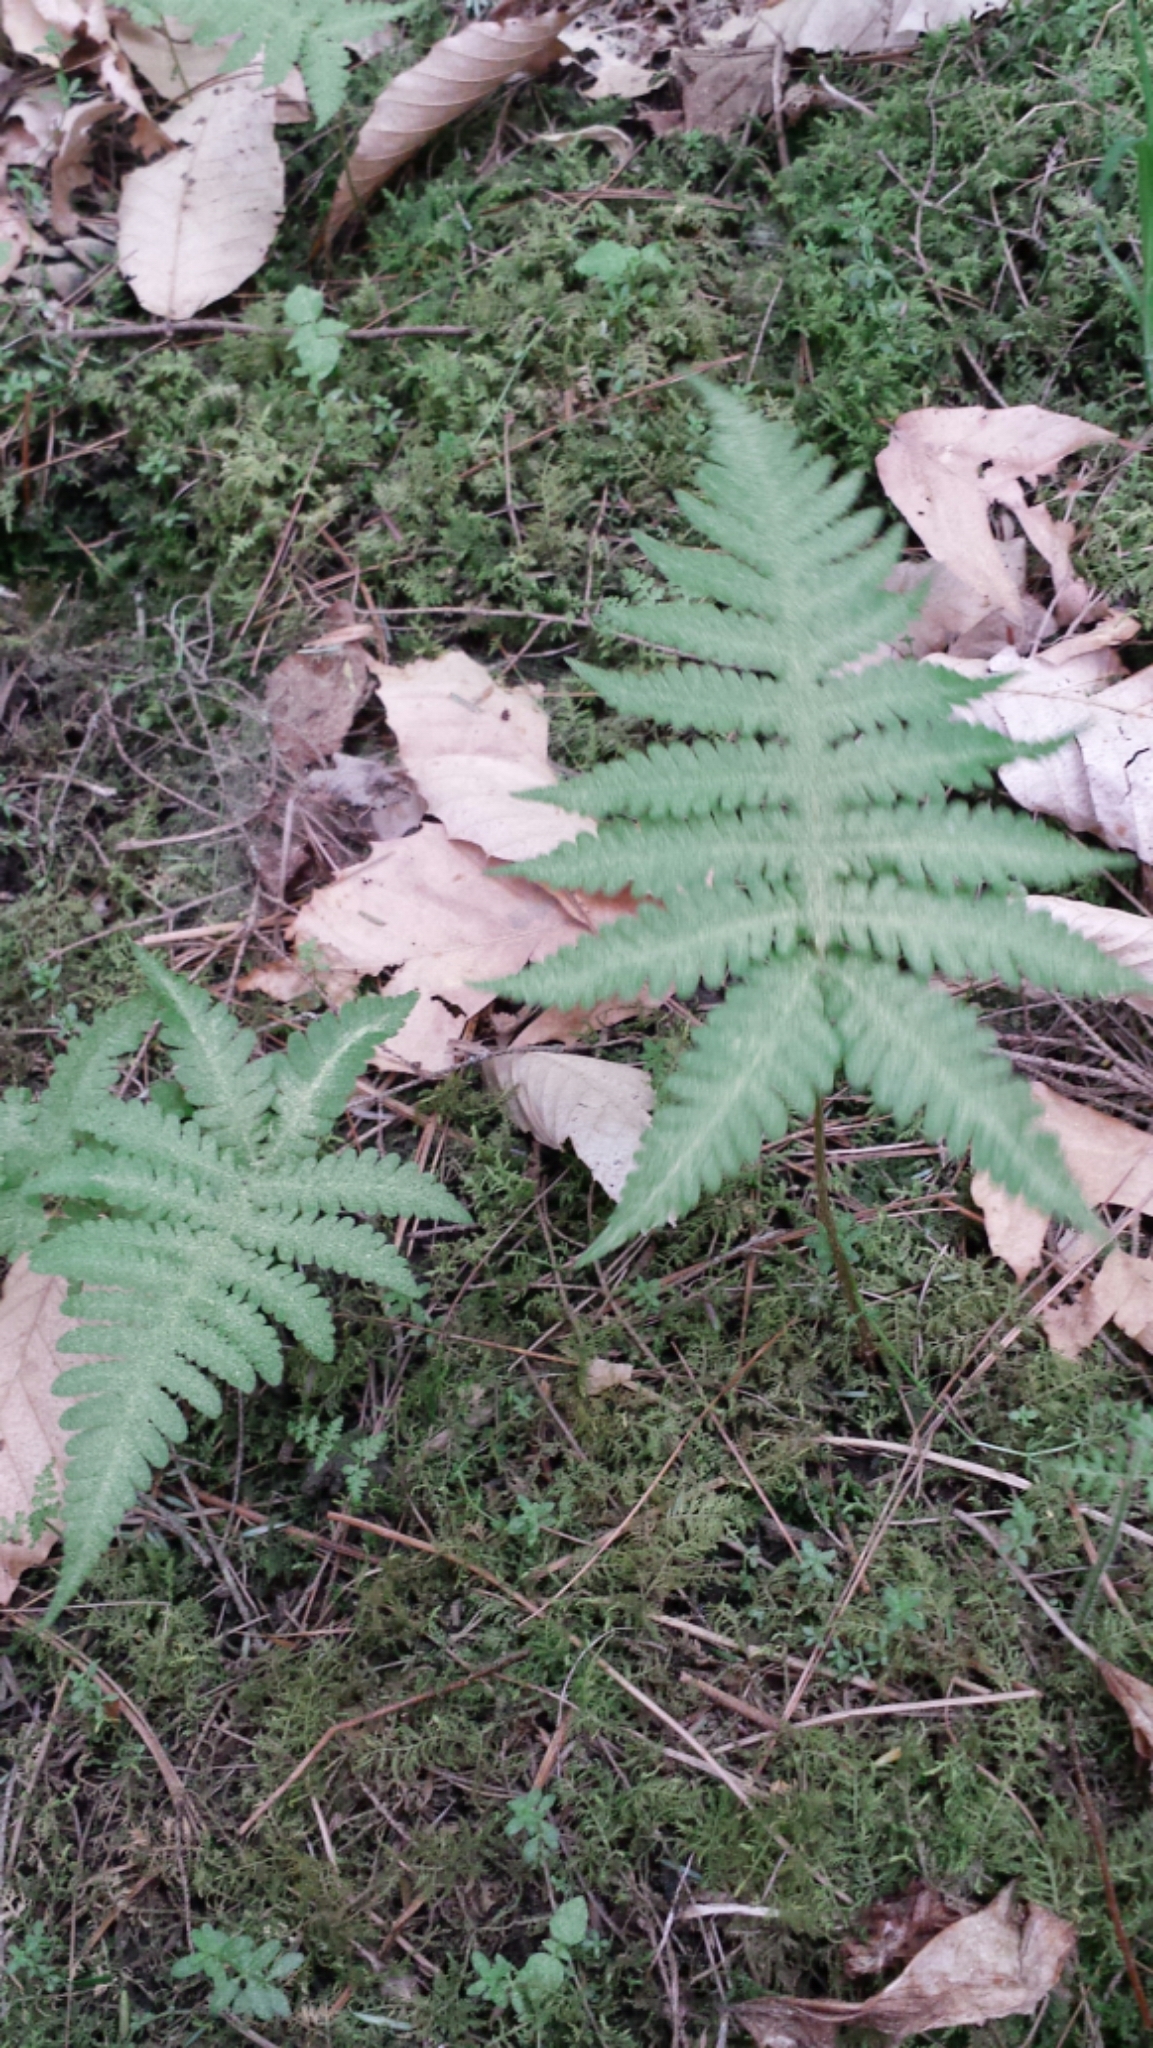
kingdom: Plantae
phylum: Tracheophyta
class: Polypodiopsida
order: Polypodiales
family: Thelypteridaceae
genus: Phegopteris
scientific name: Phegopteris connectilis
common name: Beech fern
